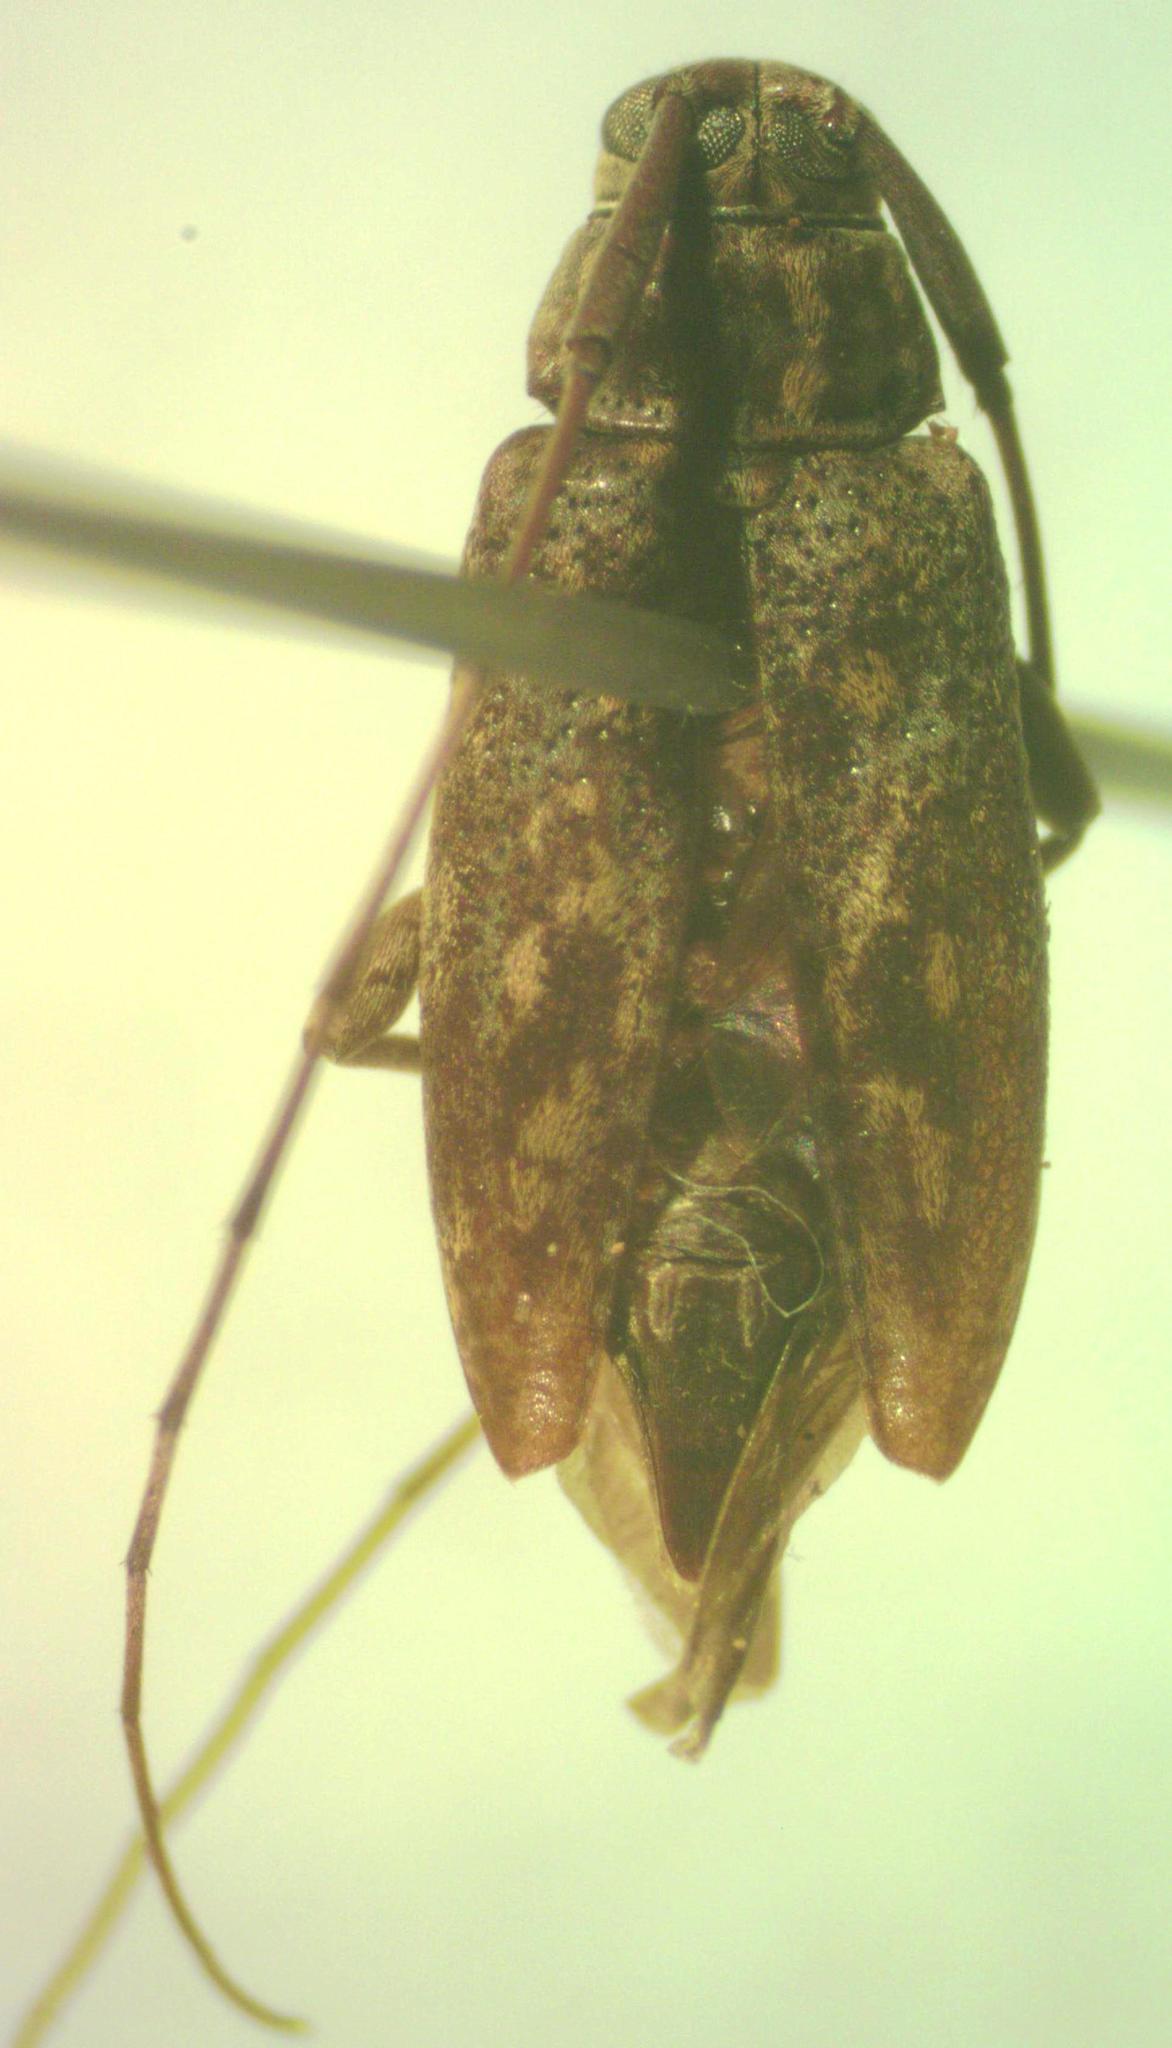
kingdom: Animalia
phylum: Arthropoda
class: Insecta
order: Coleoptera
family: Cerambycidae
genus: Atrypanius
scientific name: Atrypanius haldemani
